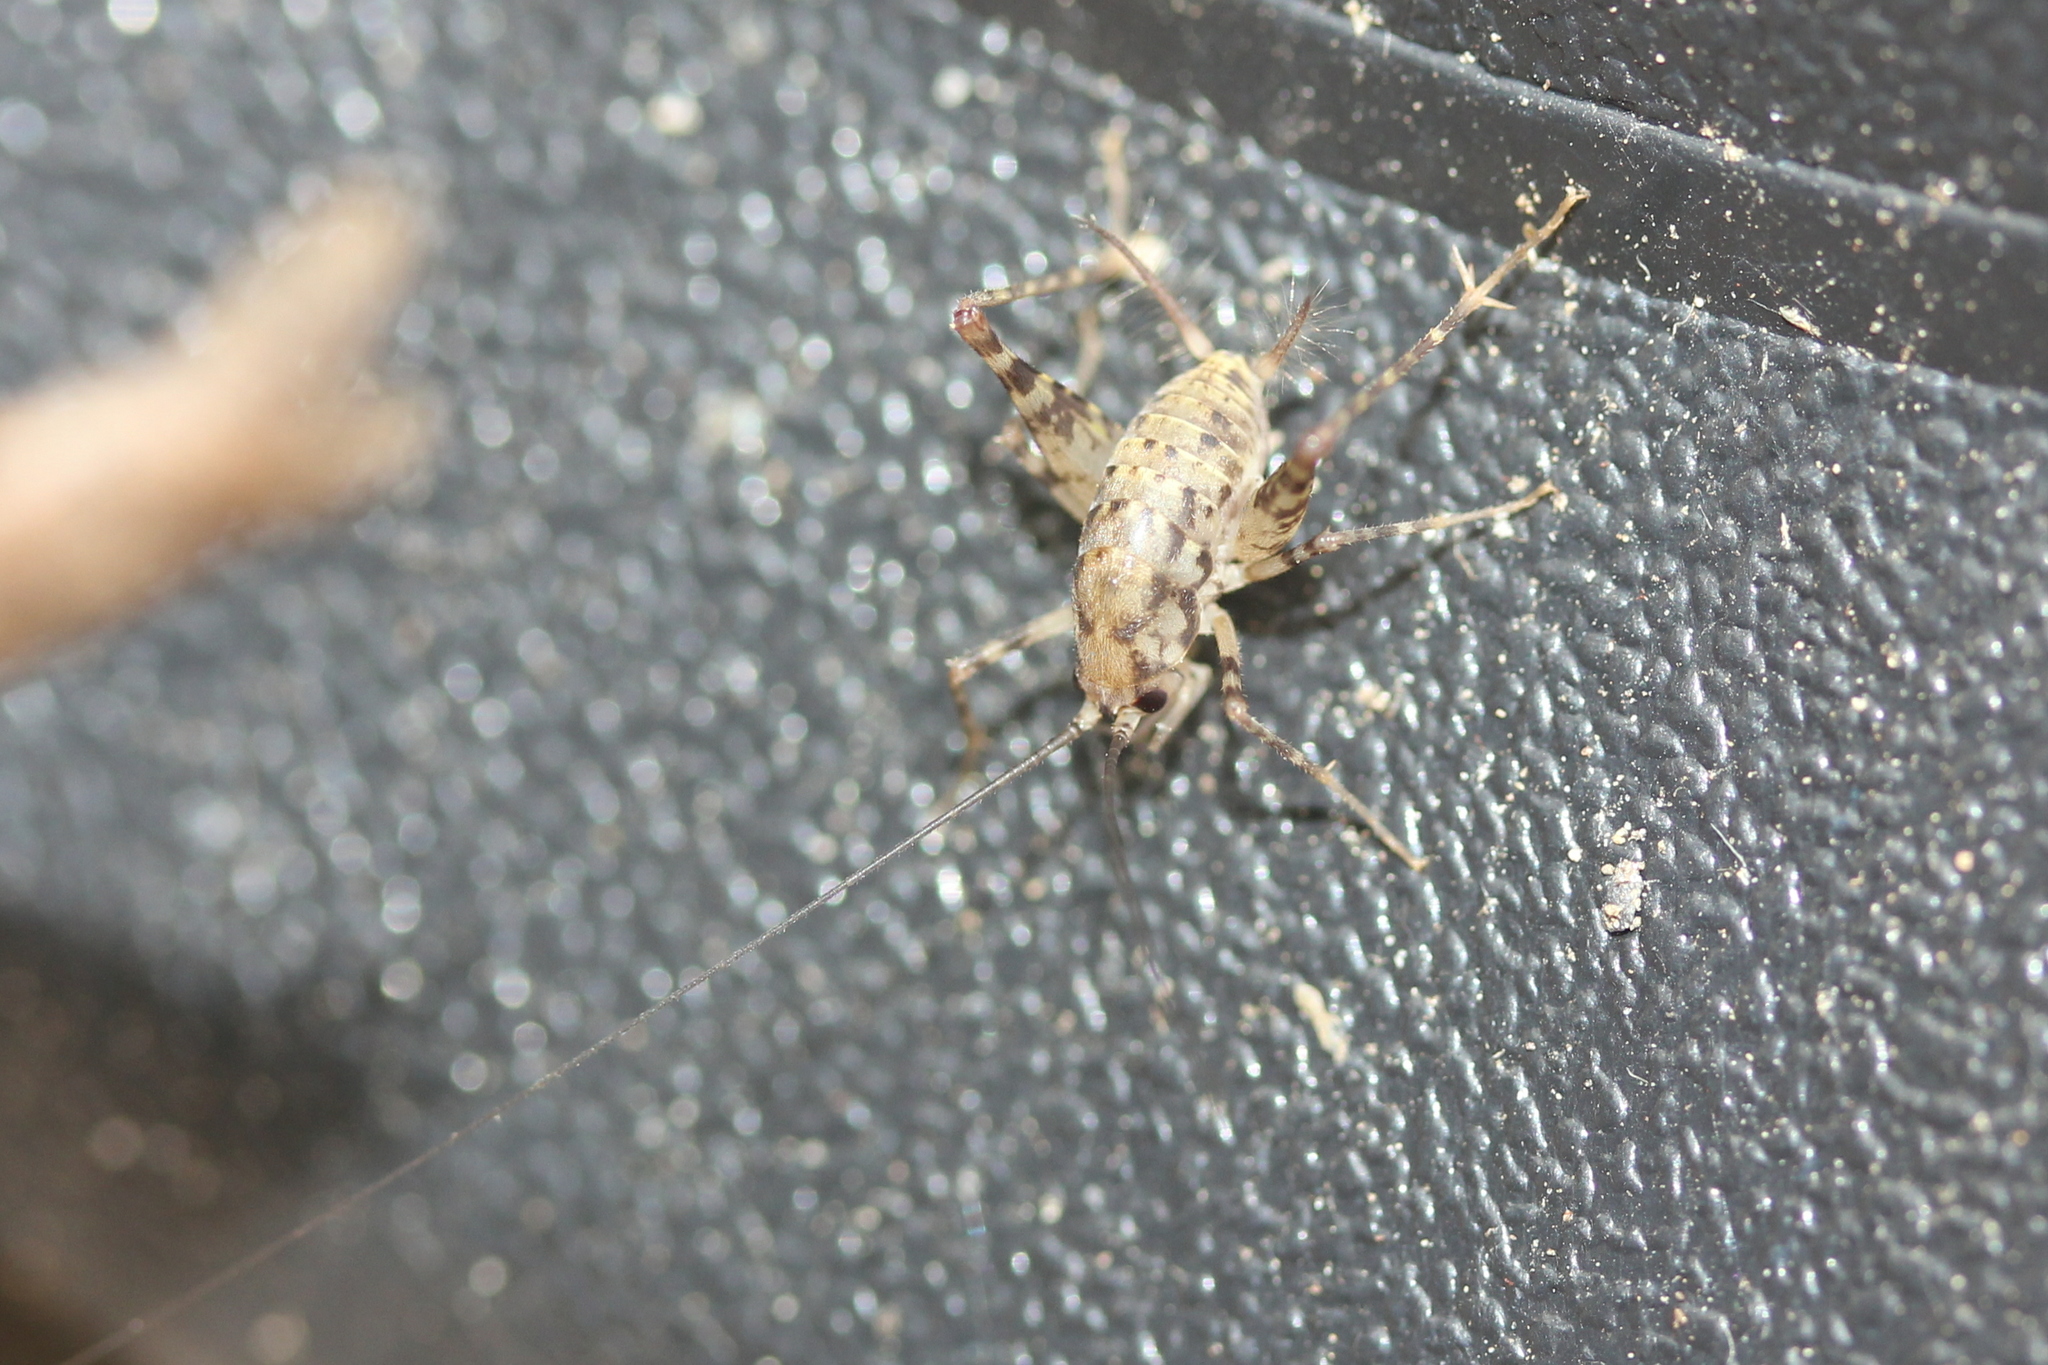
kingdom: Animalia
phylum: Arthropoda
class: Insecta
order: Orthoptera
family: Rhaphidophoridae
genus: Tachycines
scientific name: Tachycines asynamorus
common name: Greenhouse camel cricket
